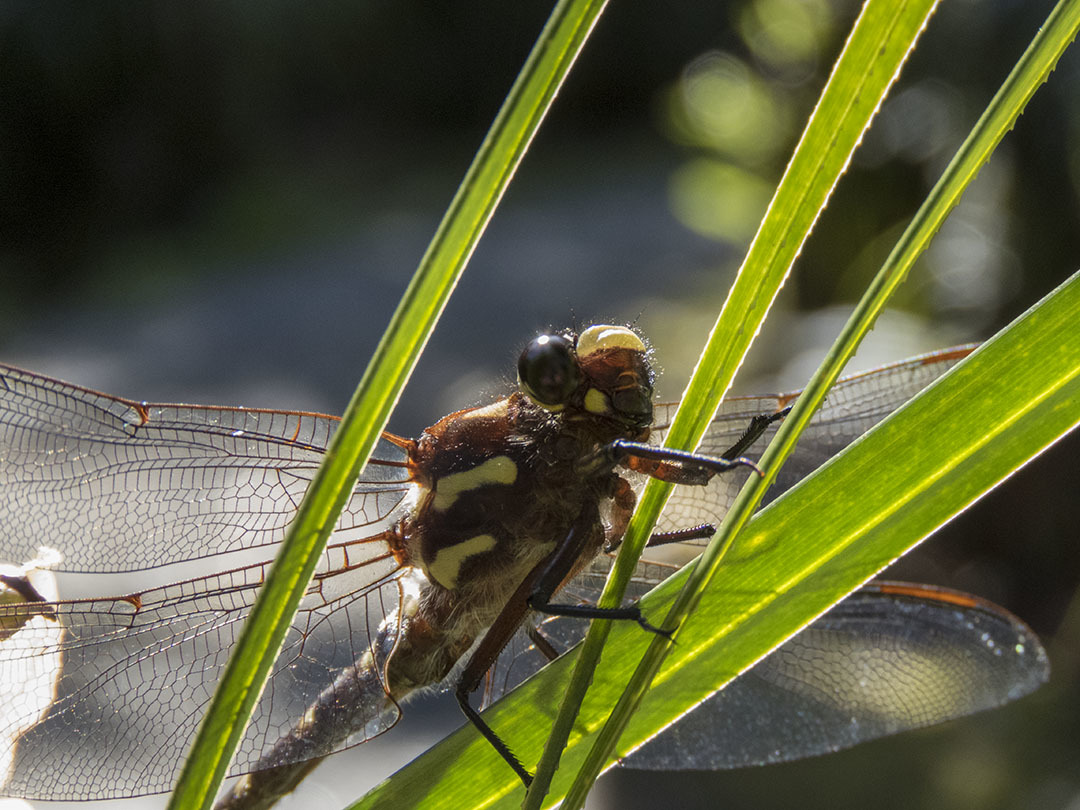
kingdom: Animalia
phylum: Arthropoda
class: Insecta
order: Odonata
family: Petaluridae
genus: Uropetala
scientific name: Uropetala carovei
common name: Bush giant dragonfly
